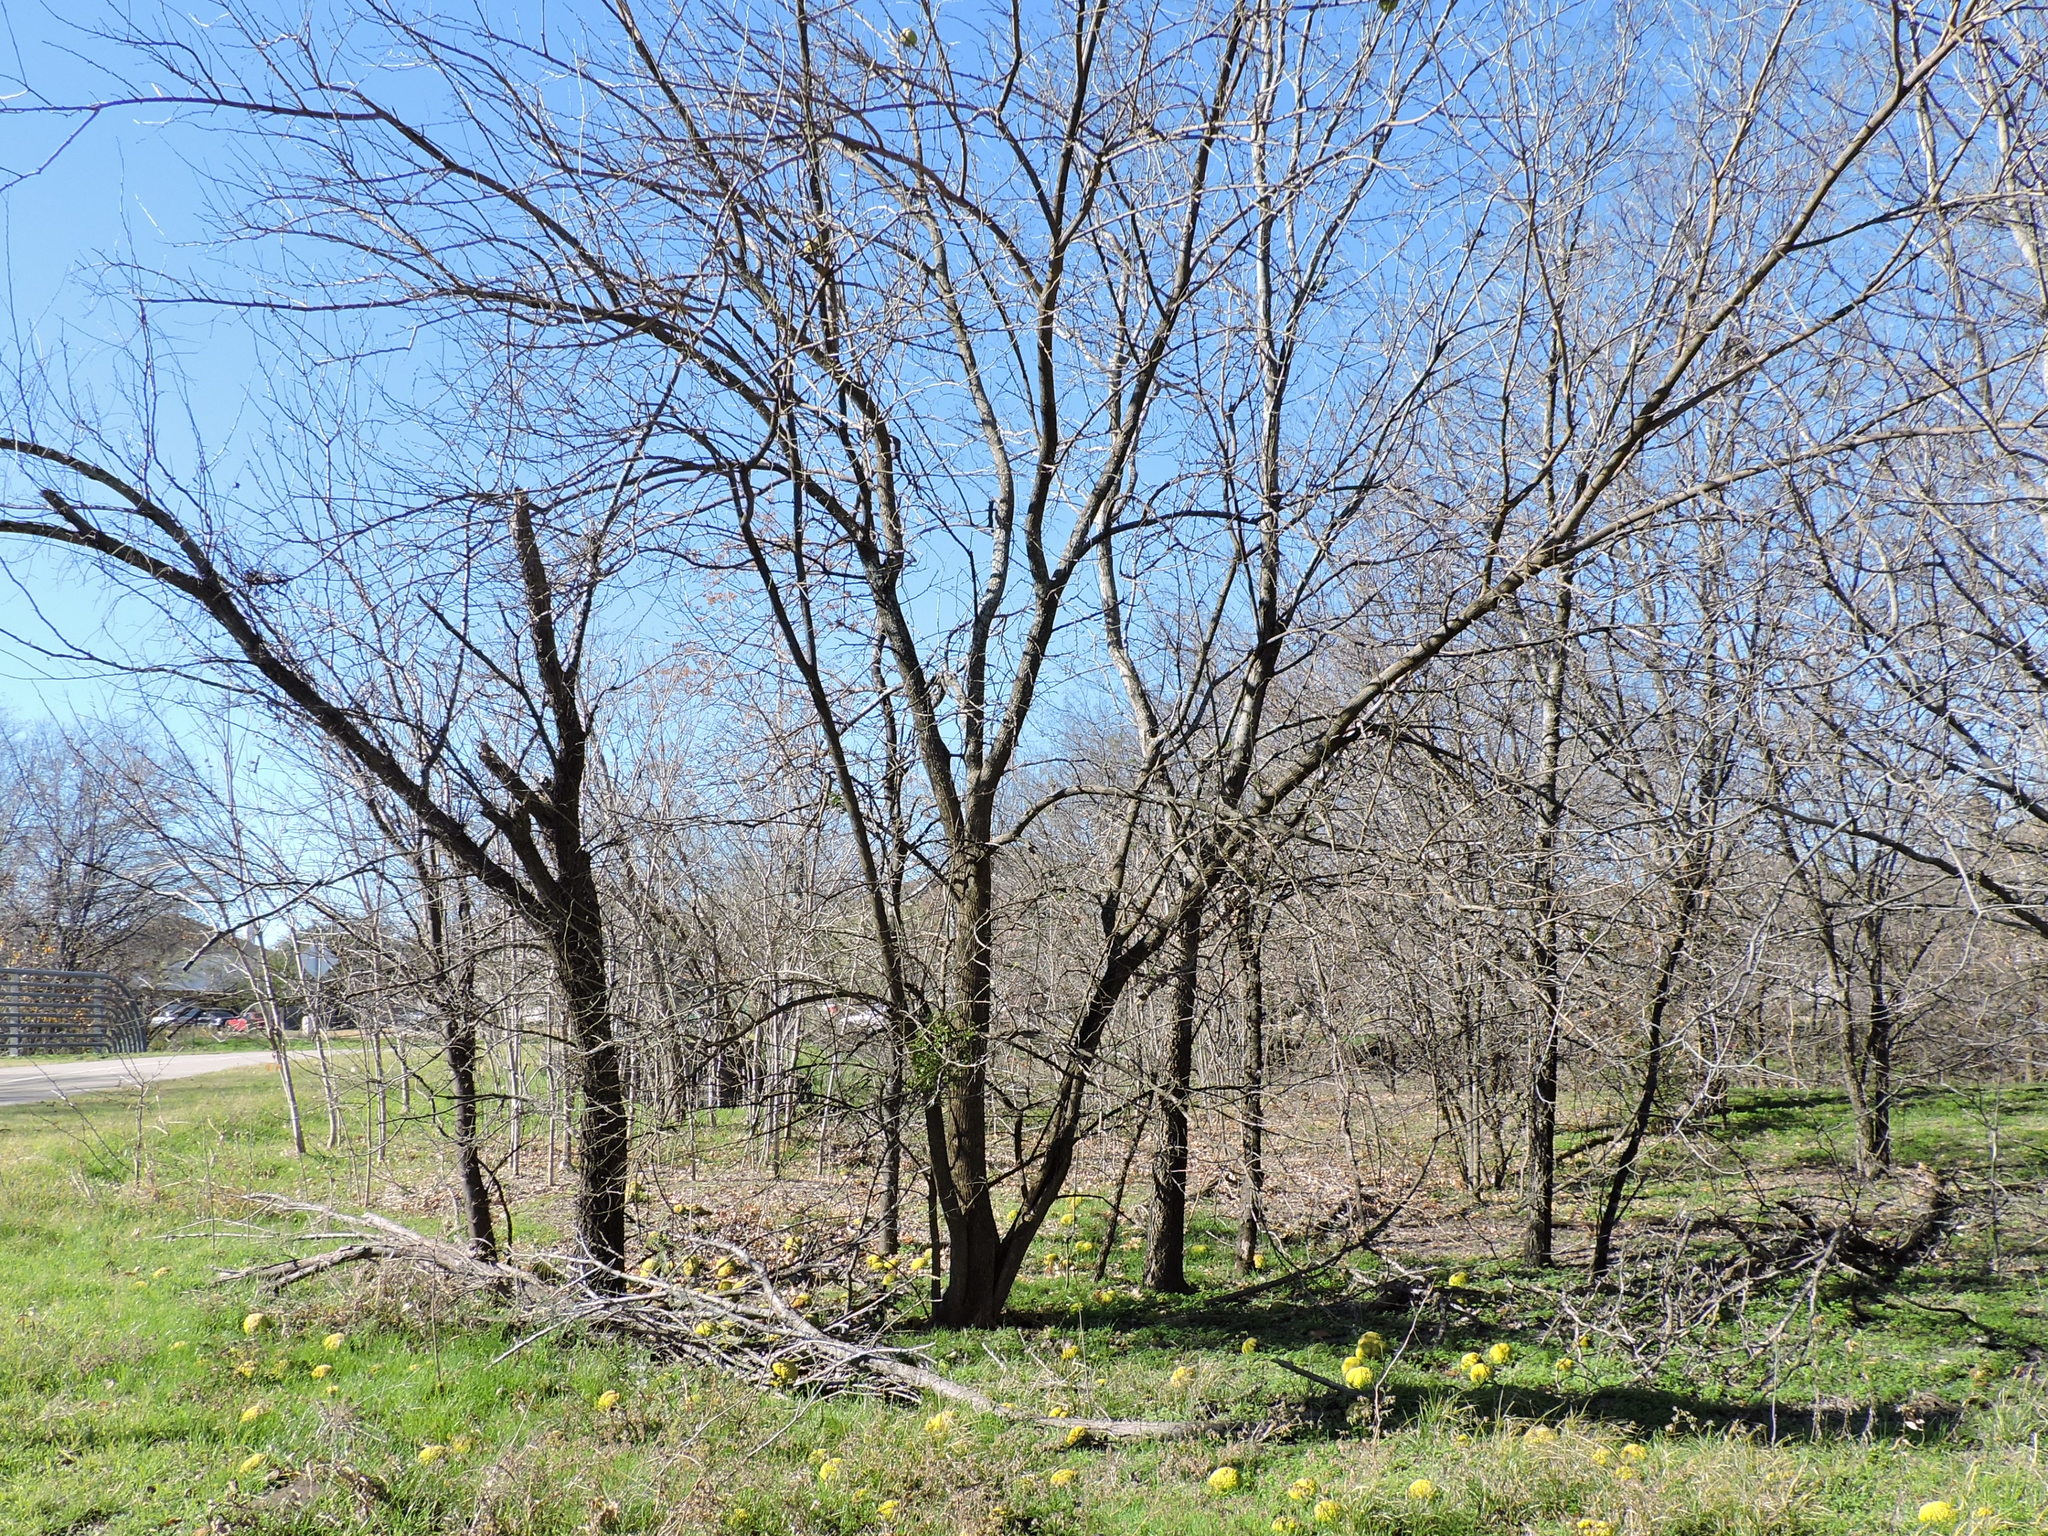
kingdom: Plantae
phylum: Tracheophyta
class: Magnoliopsida
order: Rosales
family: Moraceae
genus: Maclura
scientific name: Maclura pomifera
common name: Osage-orange
